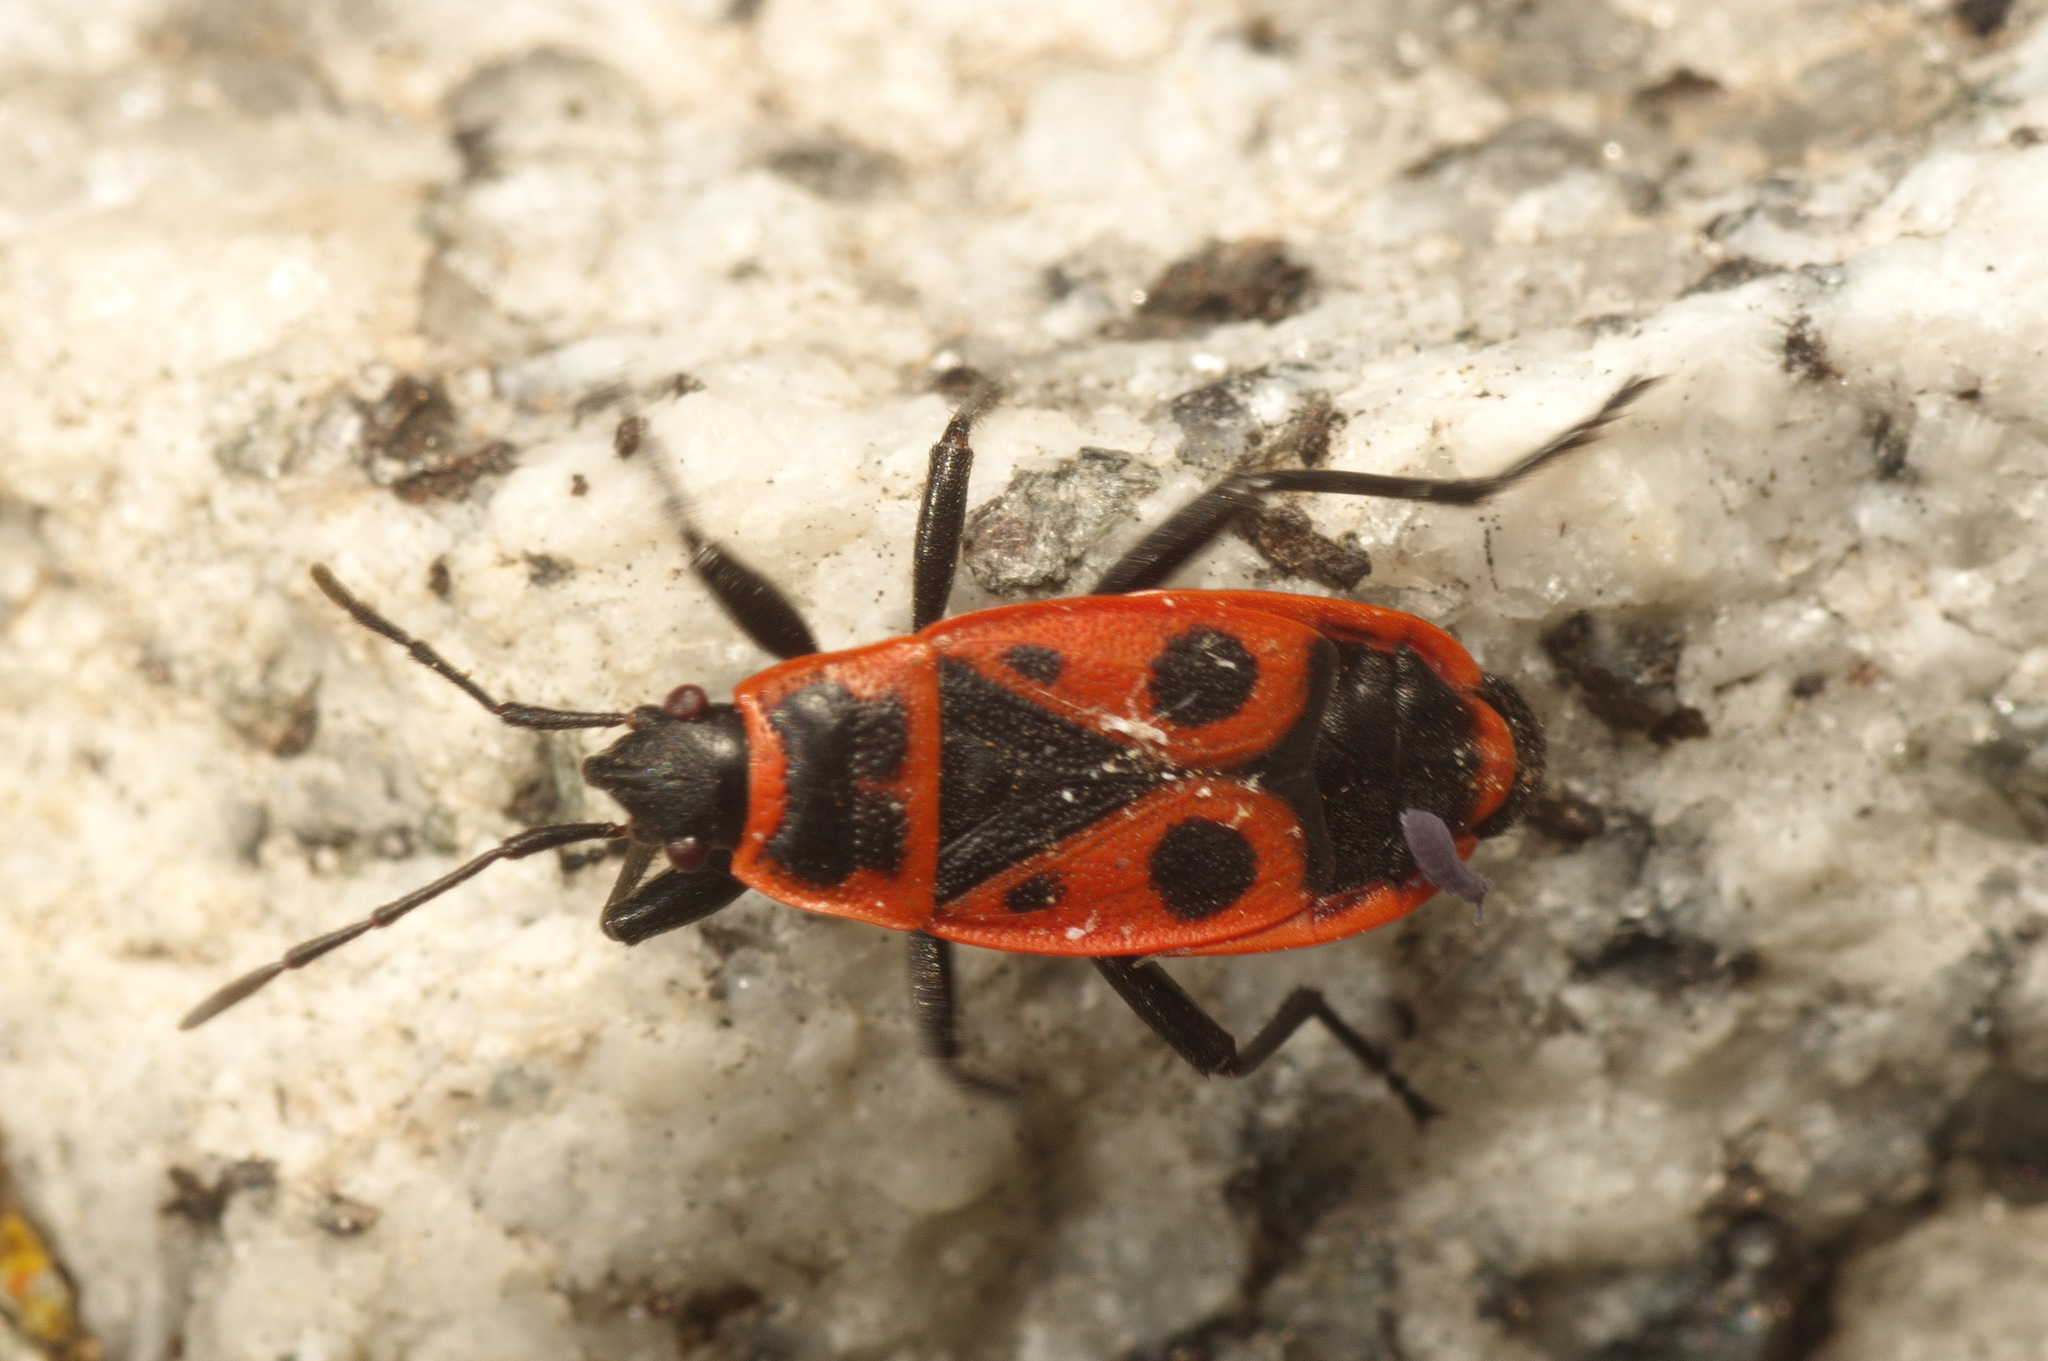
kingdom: Animalia
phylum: Arthropoda
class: Insecta
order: Hemiptera
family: Pyrrhocoridae
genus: Pyrrhocoris
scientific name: Pyrrhocoris apterus
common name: Firebug
